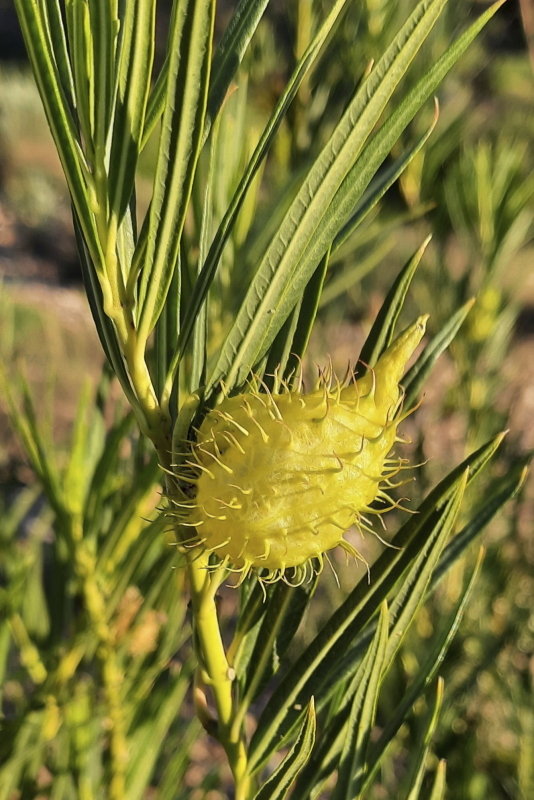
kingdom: Plantae
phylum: Tracheophyta
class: Magnoliopsida
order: Gentianales
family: Apocynaceae
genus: Gomphocarpus
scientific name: Gomphocarpus fruticosus
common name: Milkweed
